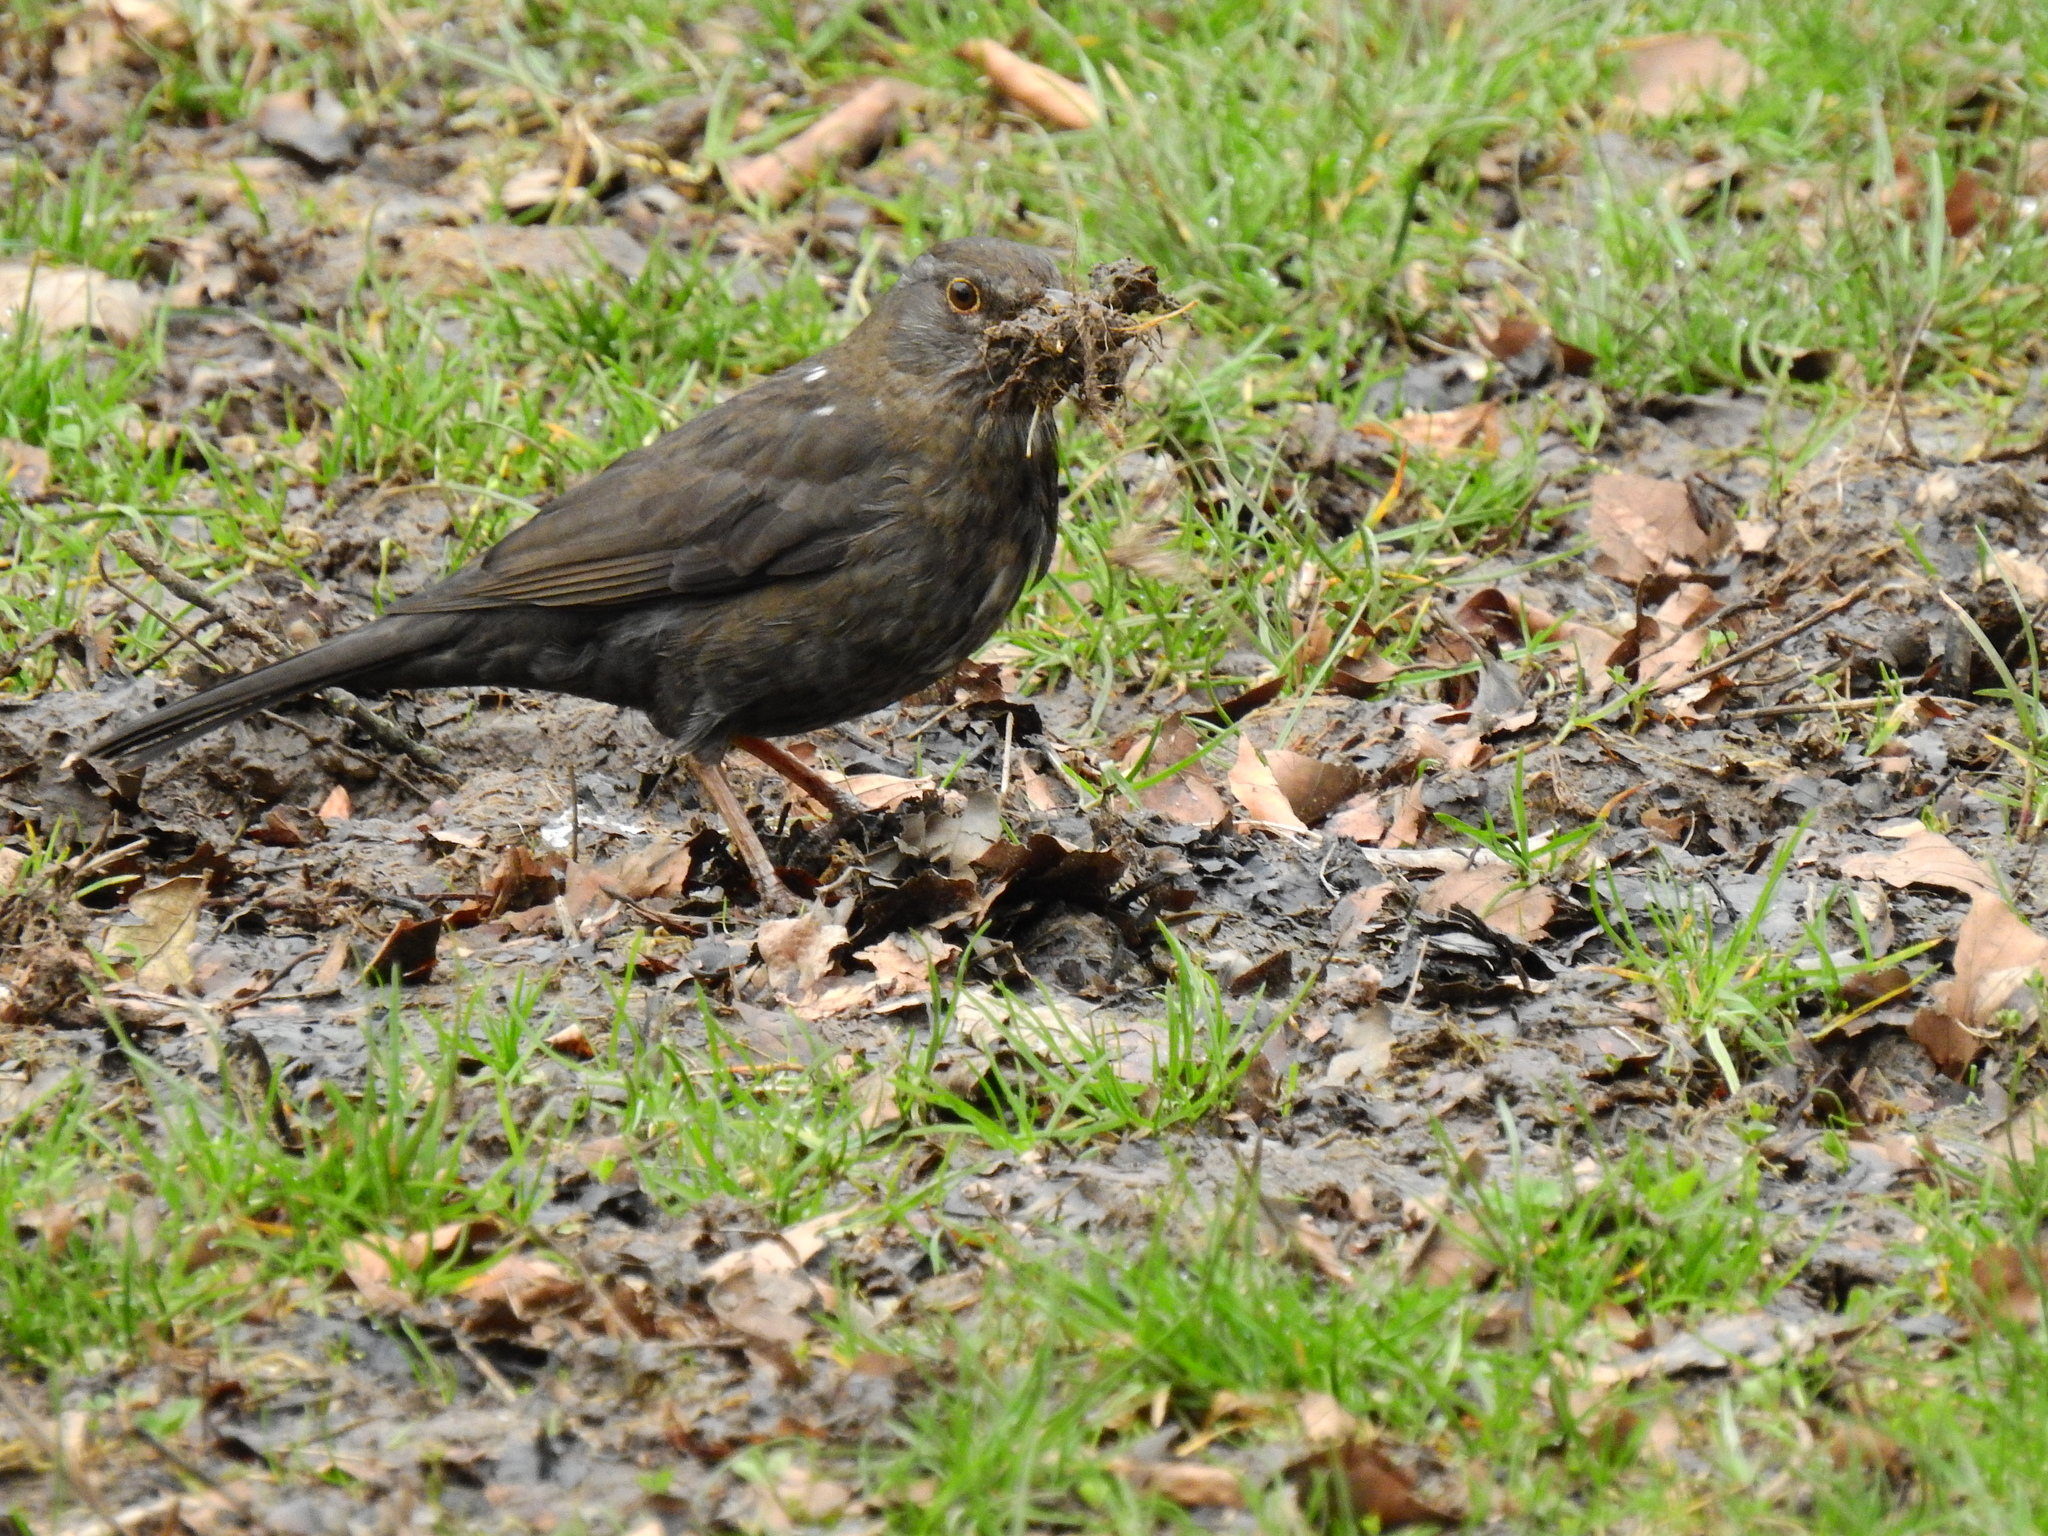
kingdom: Animalia
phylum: Chordata
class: Aves
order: Passeriformes
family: Turdidae
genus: Turdus
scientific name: Turdus merula
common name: Common blackbird
